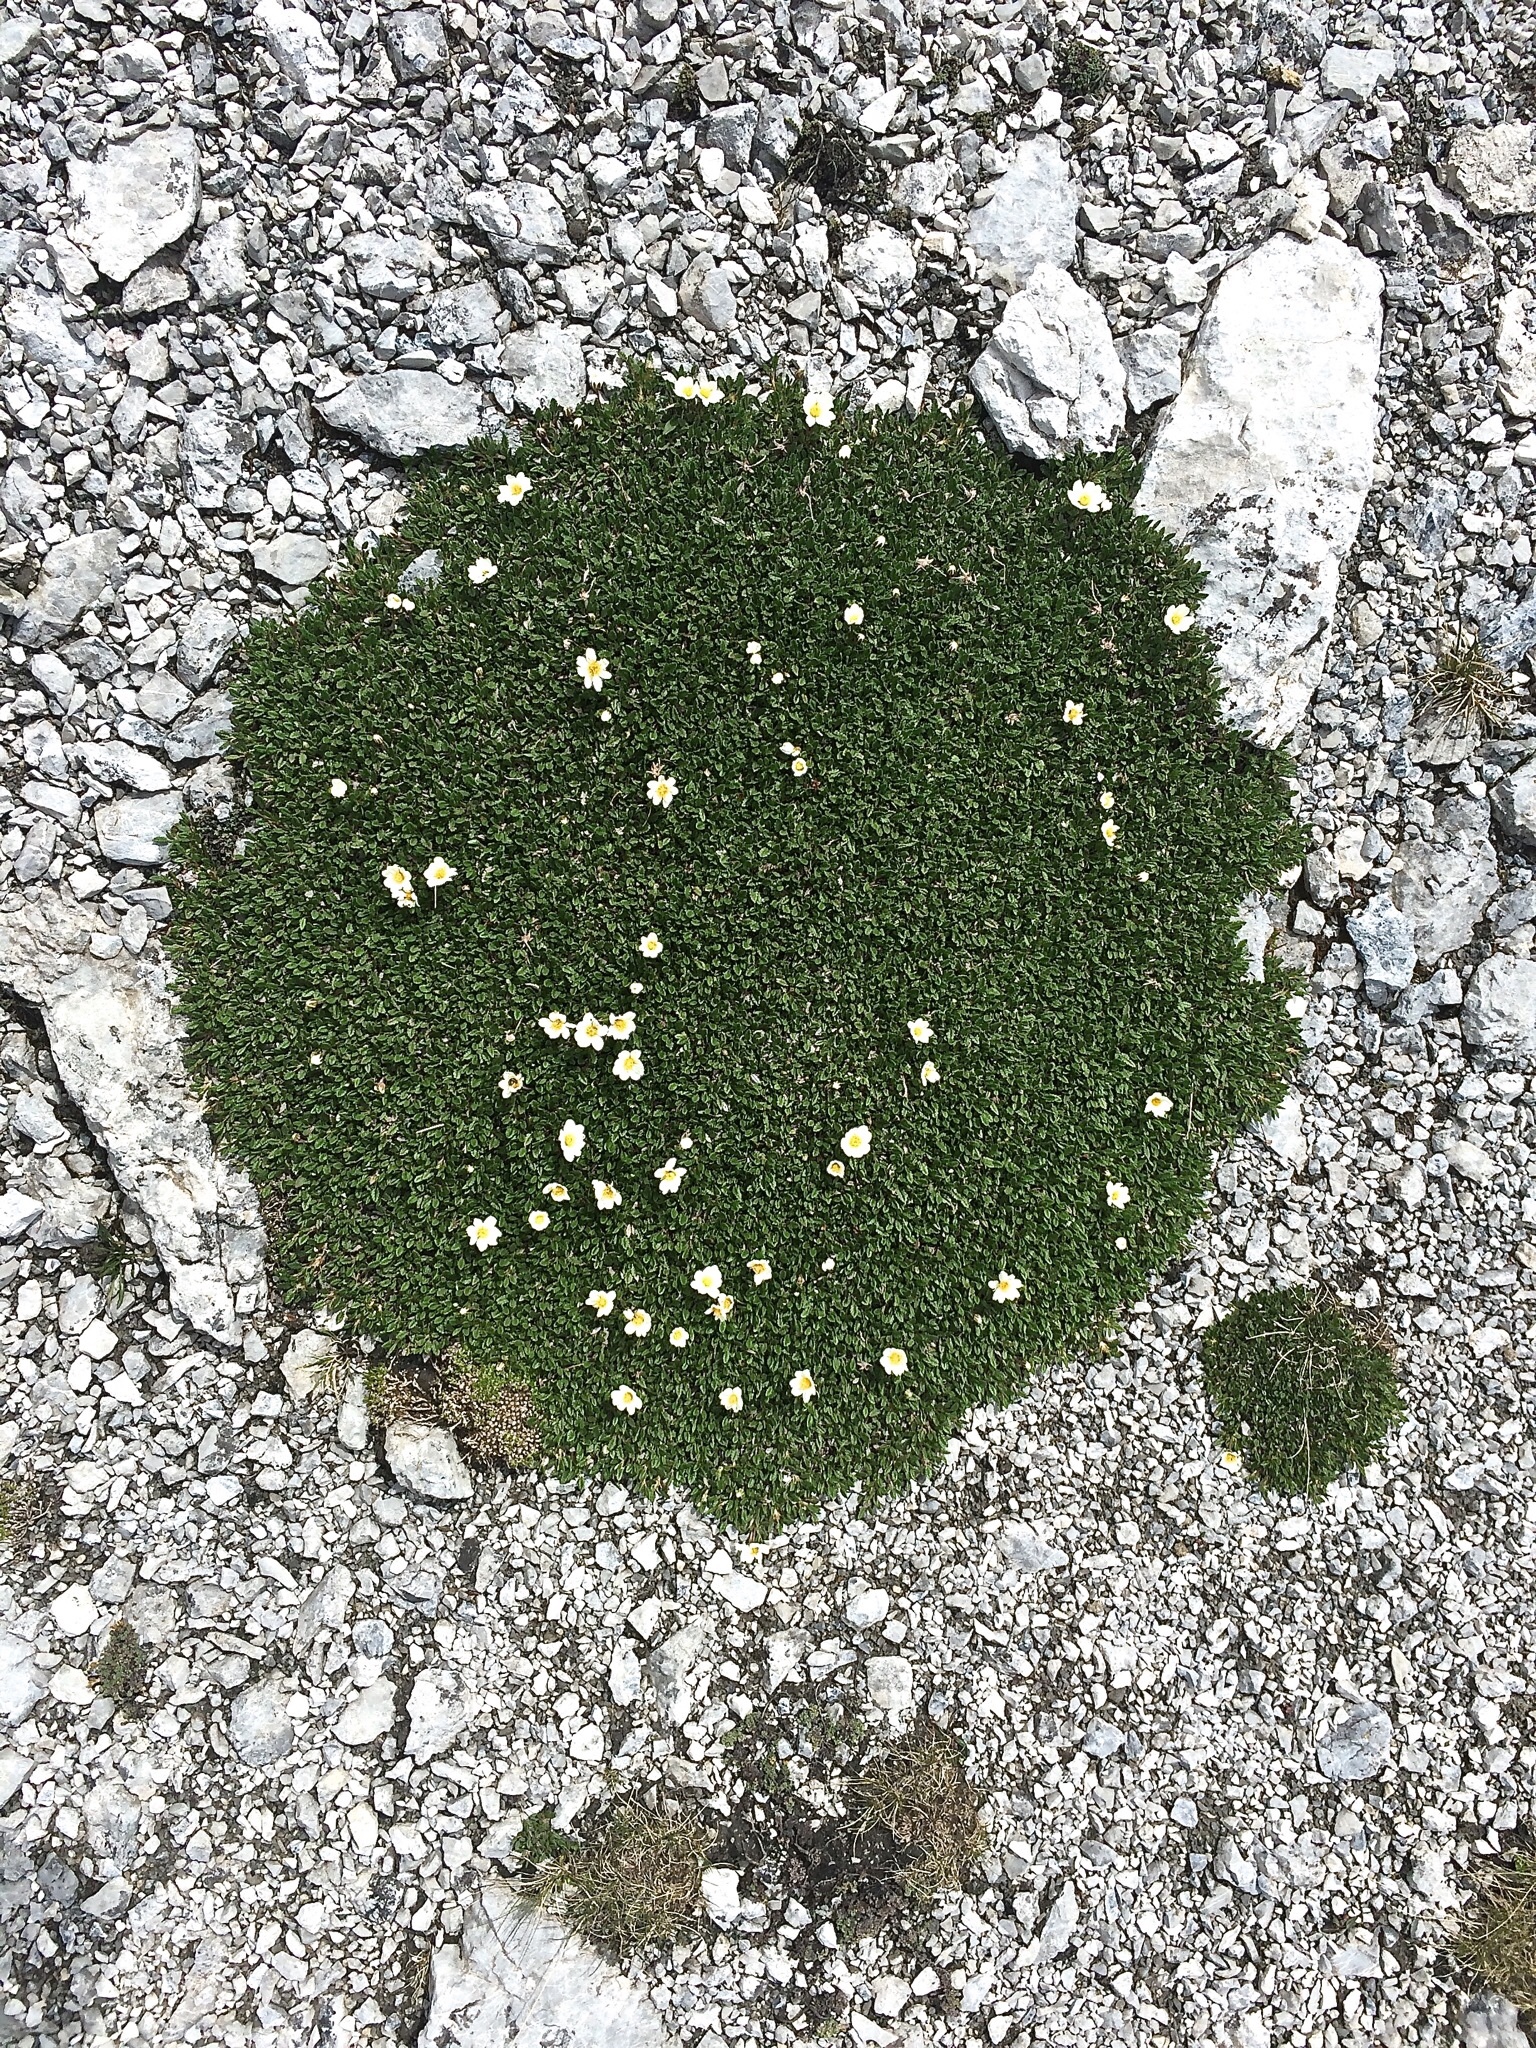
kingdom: Plantae
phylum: Tracheophyta
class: Magnoliopsida
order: Rosales
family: Rosaceae
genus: Dryas
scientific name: Dryas octopetala
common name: Eight-petal mountain-avens
